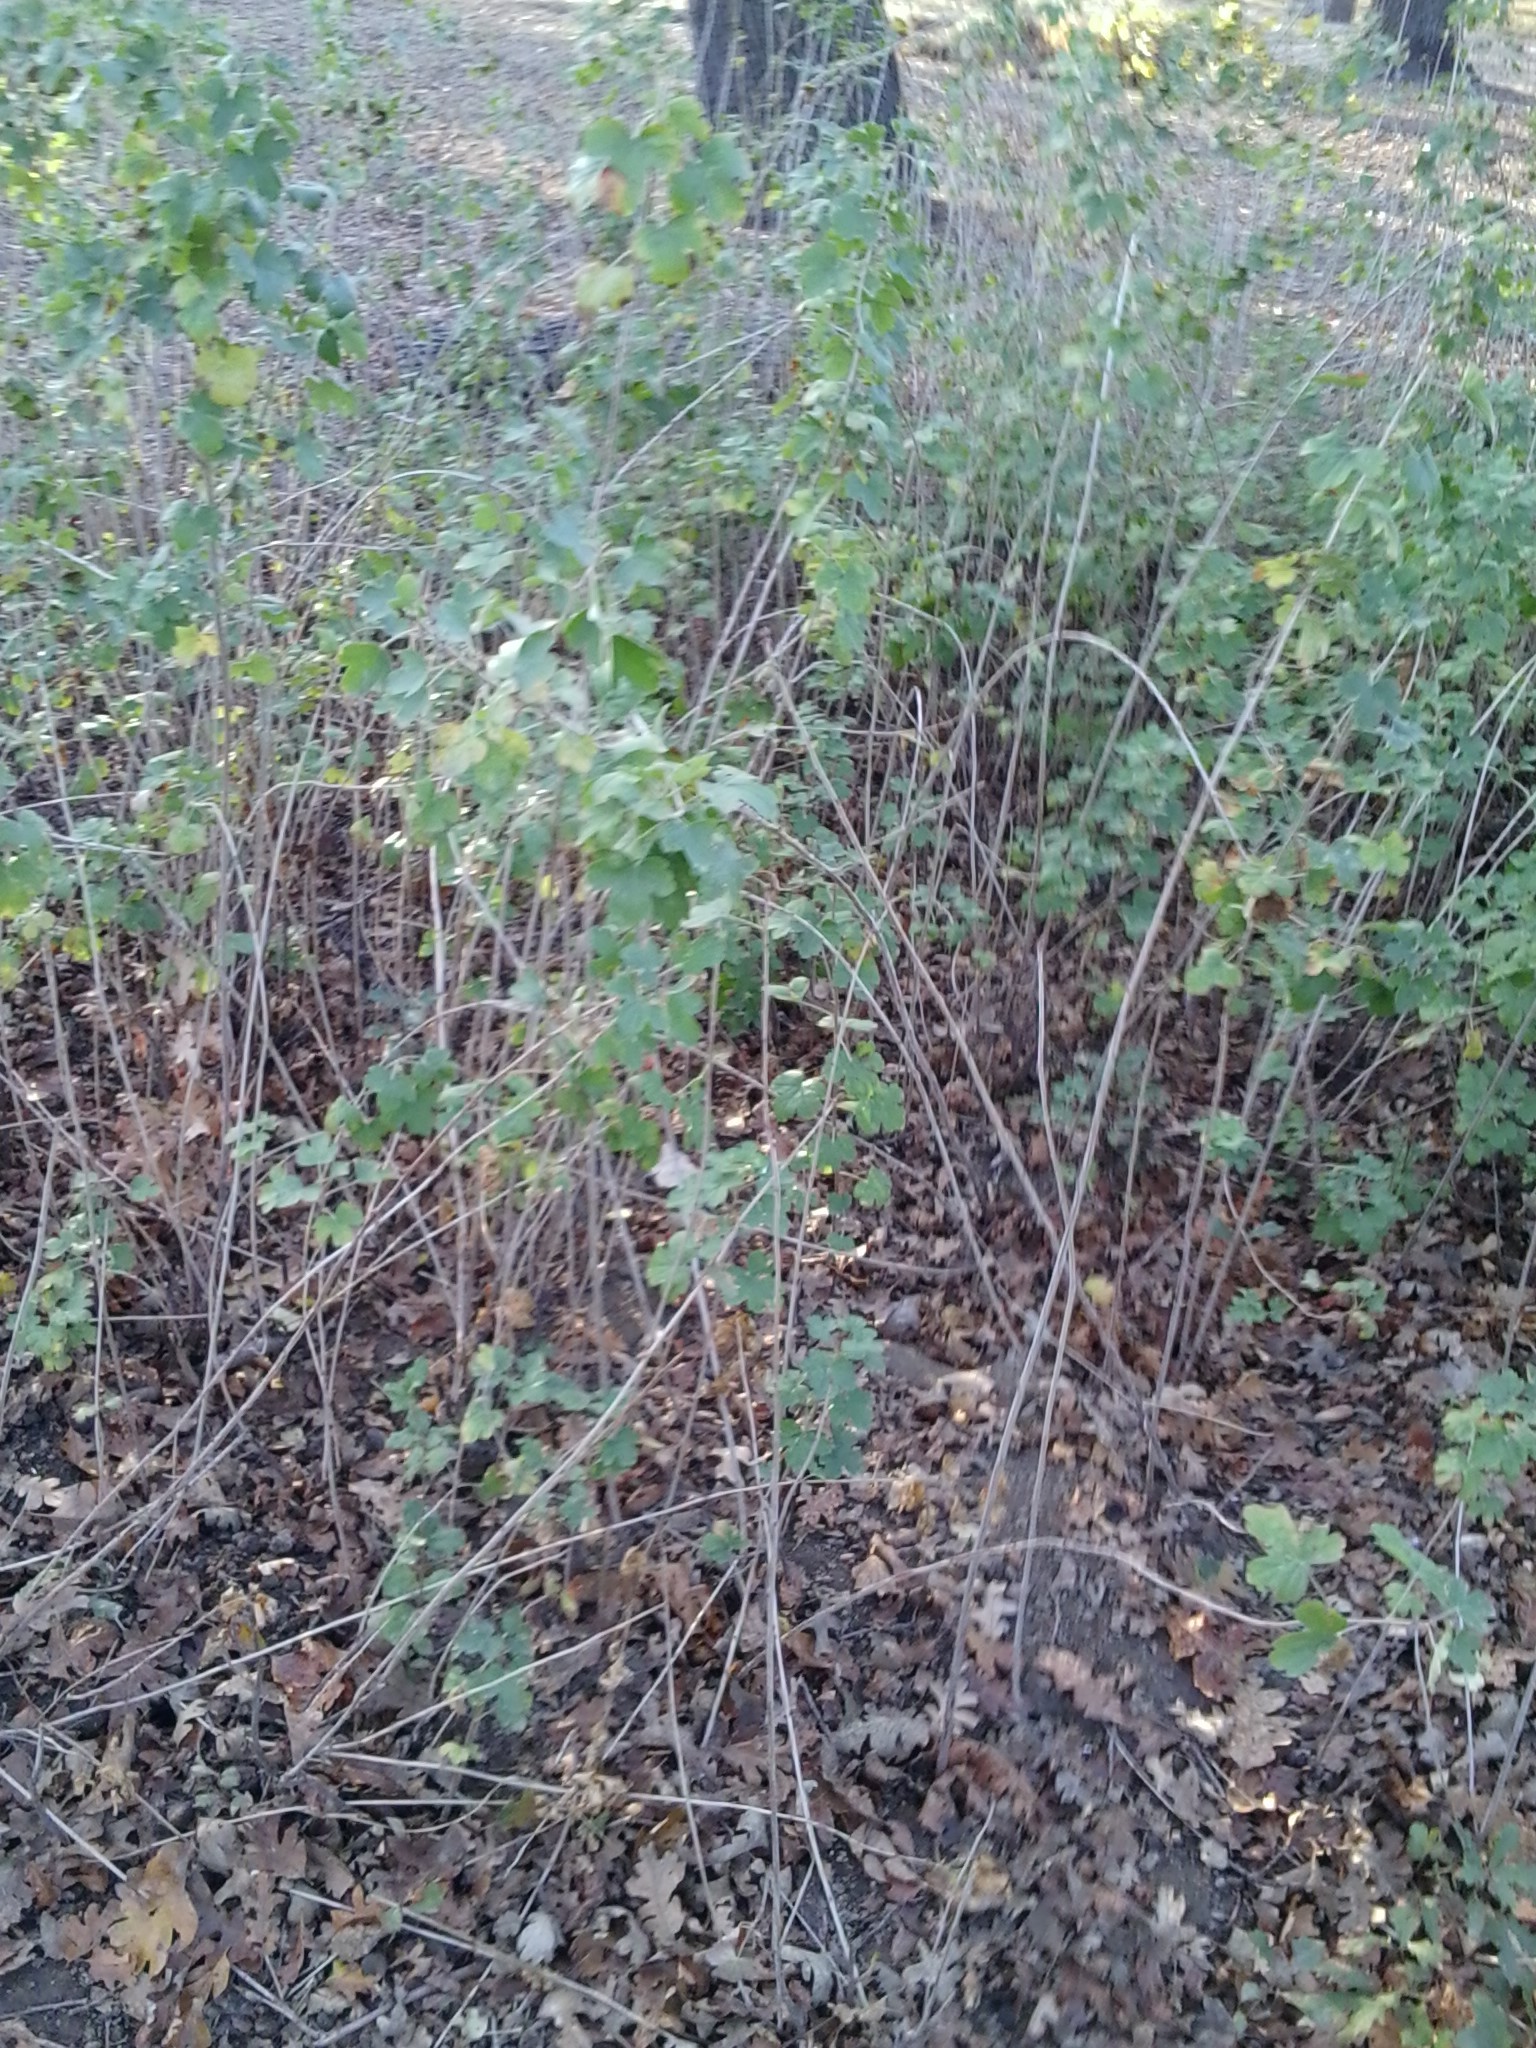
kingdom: Plantae
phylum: Tracheophyta
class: Magnoliopsida
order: Saxifragales
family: Grossulariaceae
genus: Ribes
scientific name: Ribes aureum
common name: Golden currant
